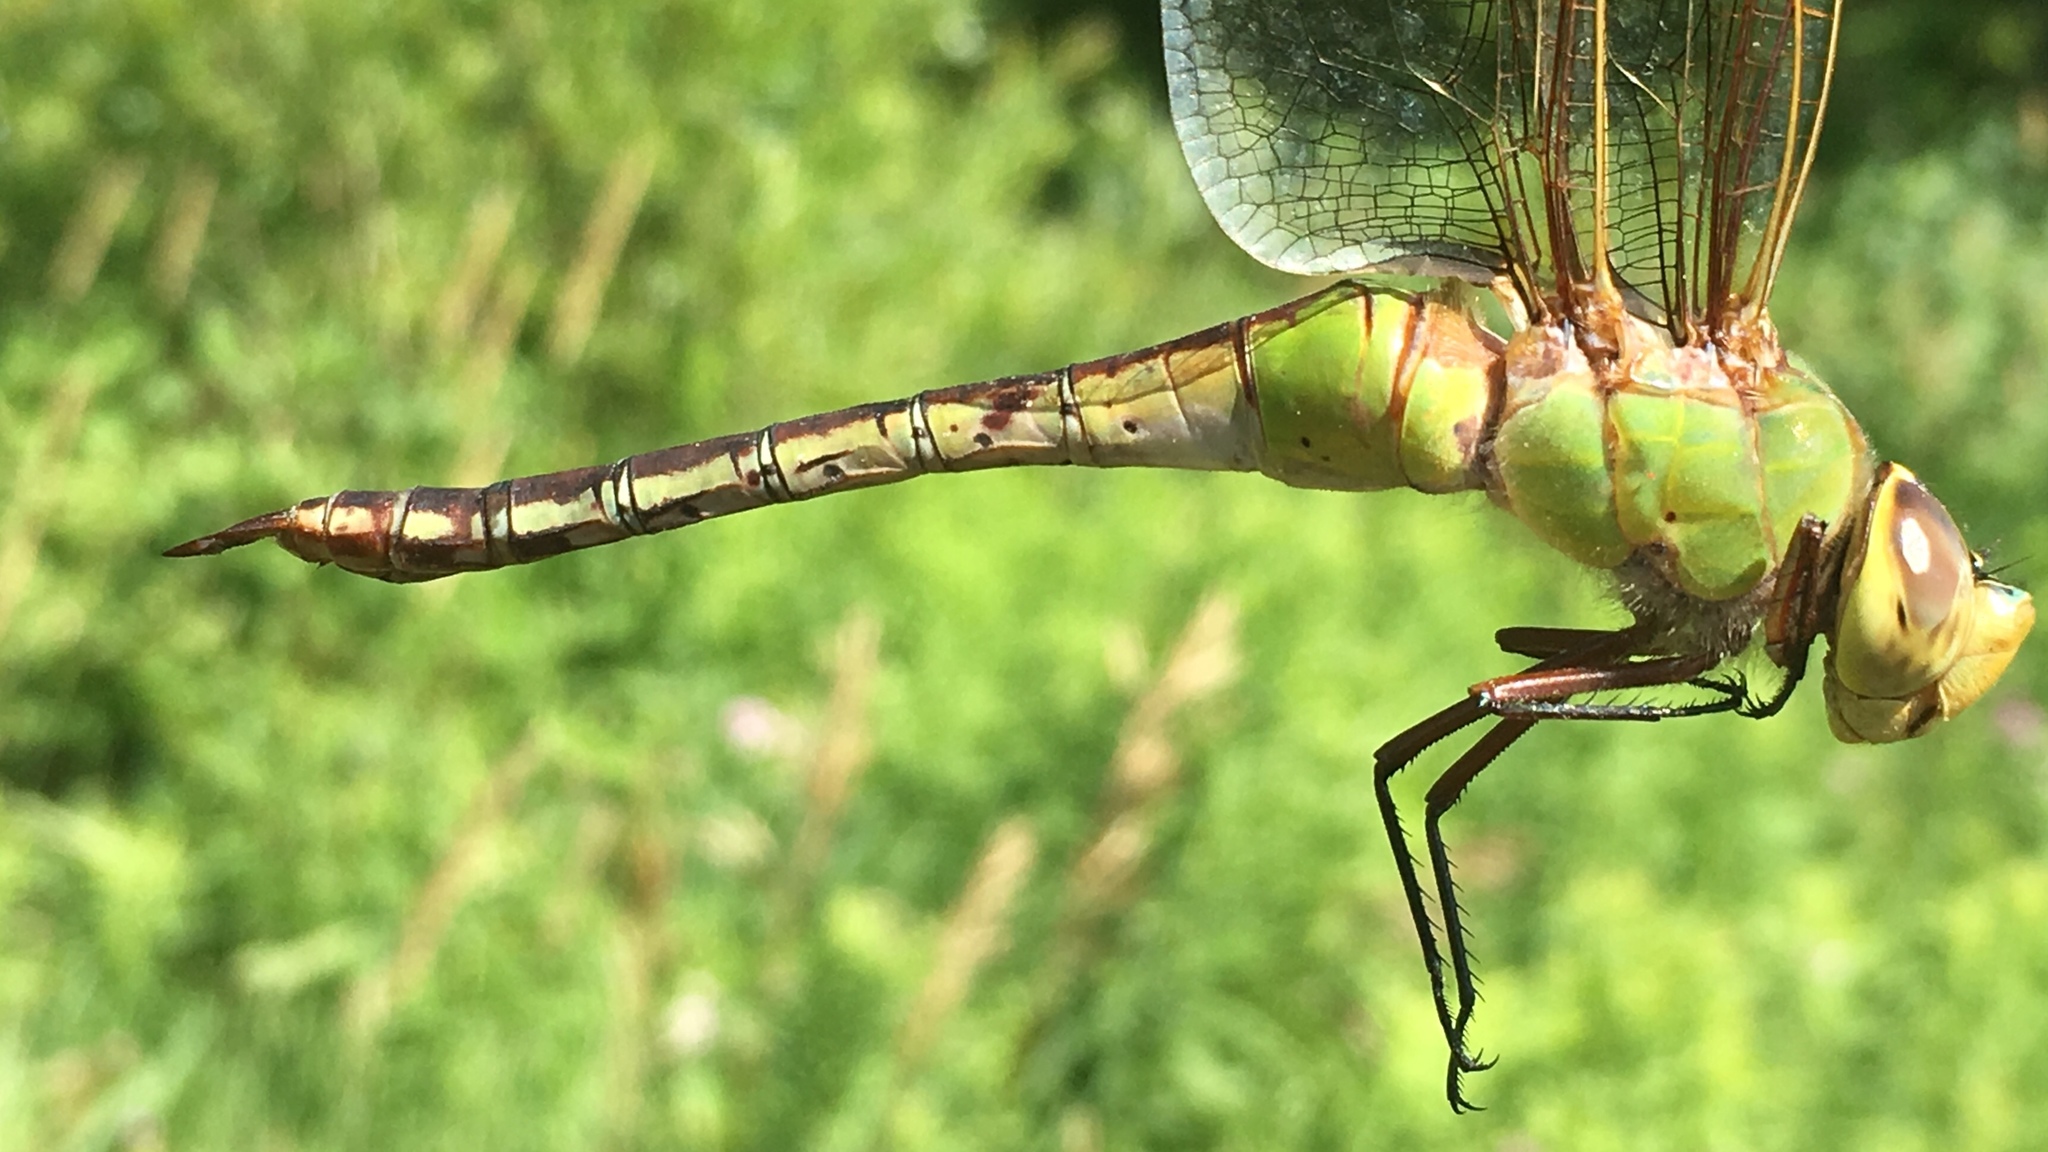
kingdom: Animalia
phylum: Arthropoda
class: Insecta
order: Odonata
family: Aeshnidae
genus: Anax
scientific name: Anax junius
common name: Common green darner
